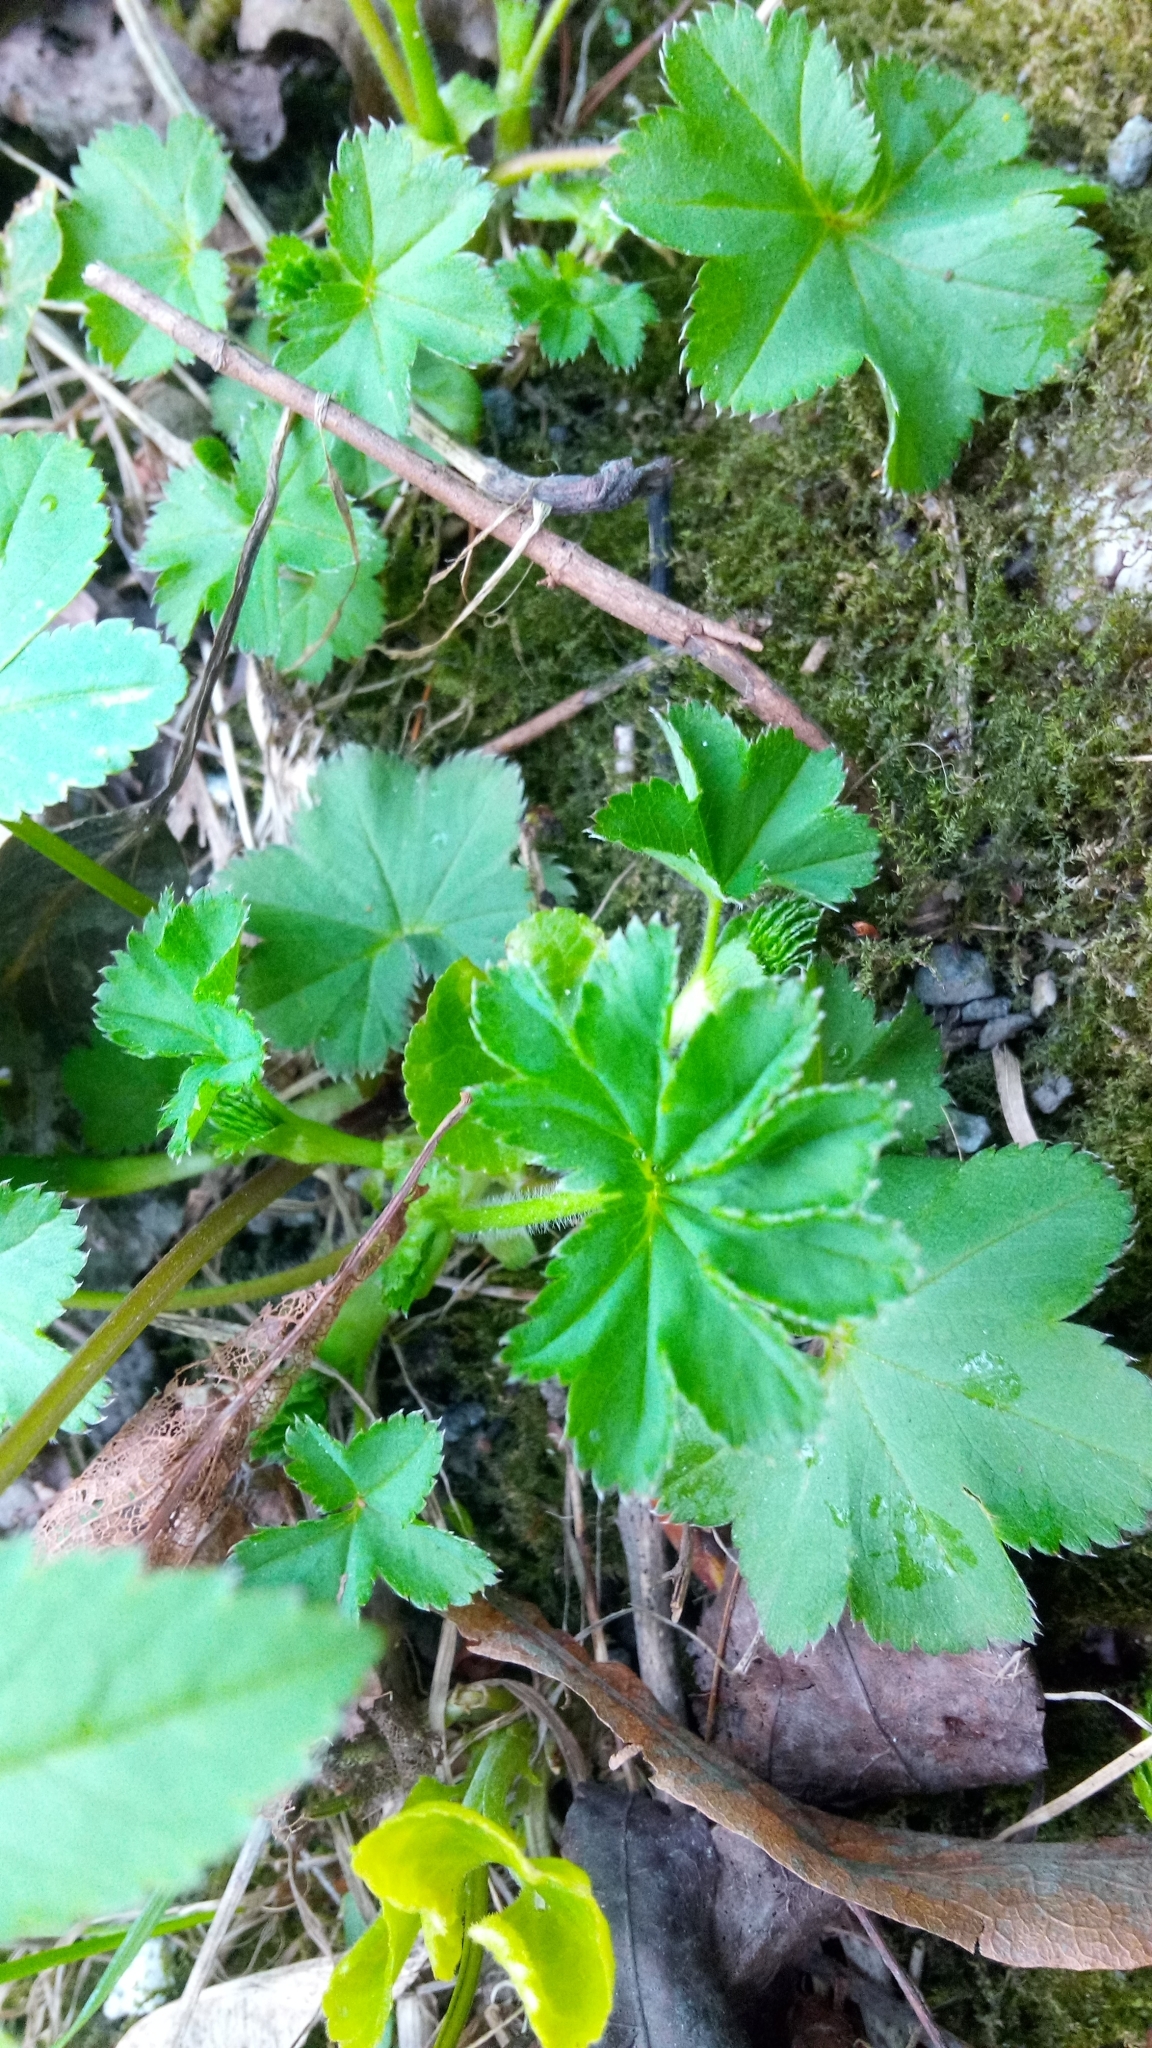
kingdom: Plantae
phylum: Tracheophyta
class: Magnoliopsida
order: Rosales
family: Rosaceae
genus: Alchemilla
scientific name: Alchemilla
